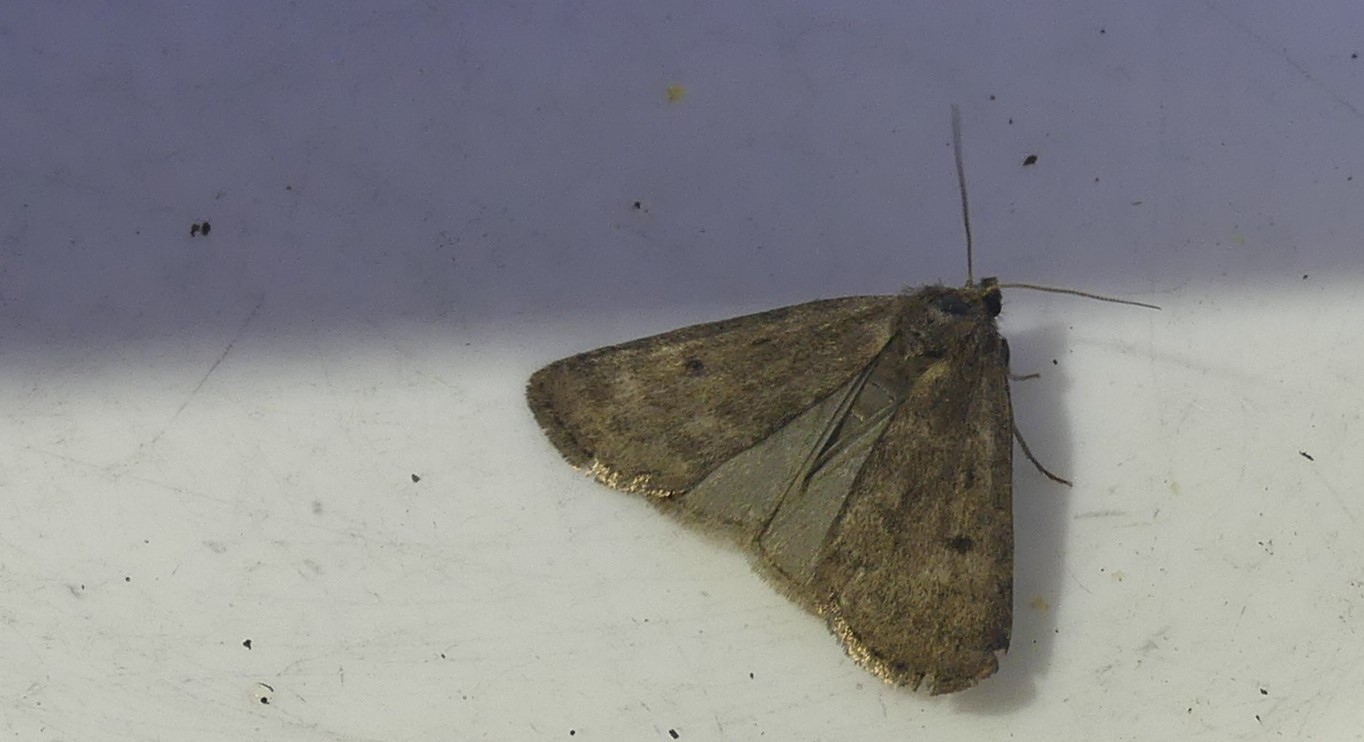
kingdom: Animalia
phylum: Arthropoda
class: Insecta
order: Lepidoptera
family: Noctuidae
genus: Athetis
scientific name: Athetis pallustris
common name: Marsh moth
